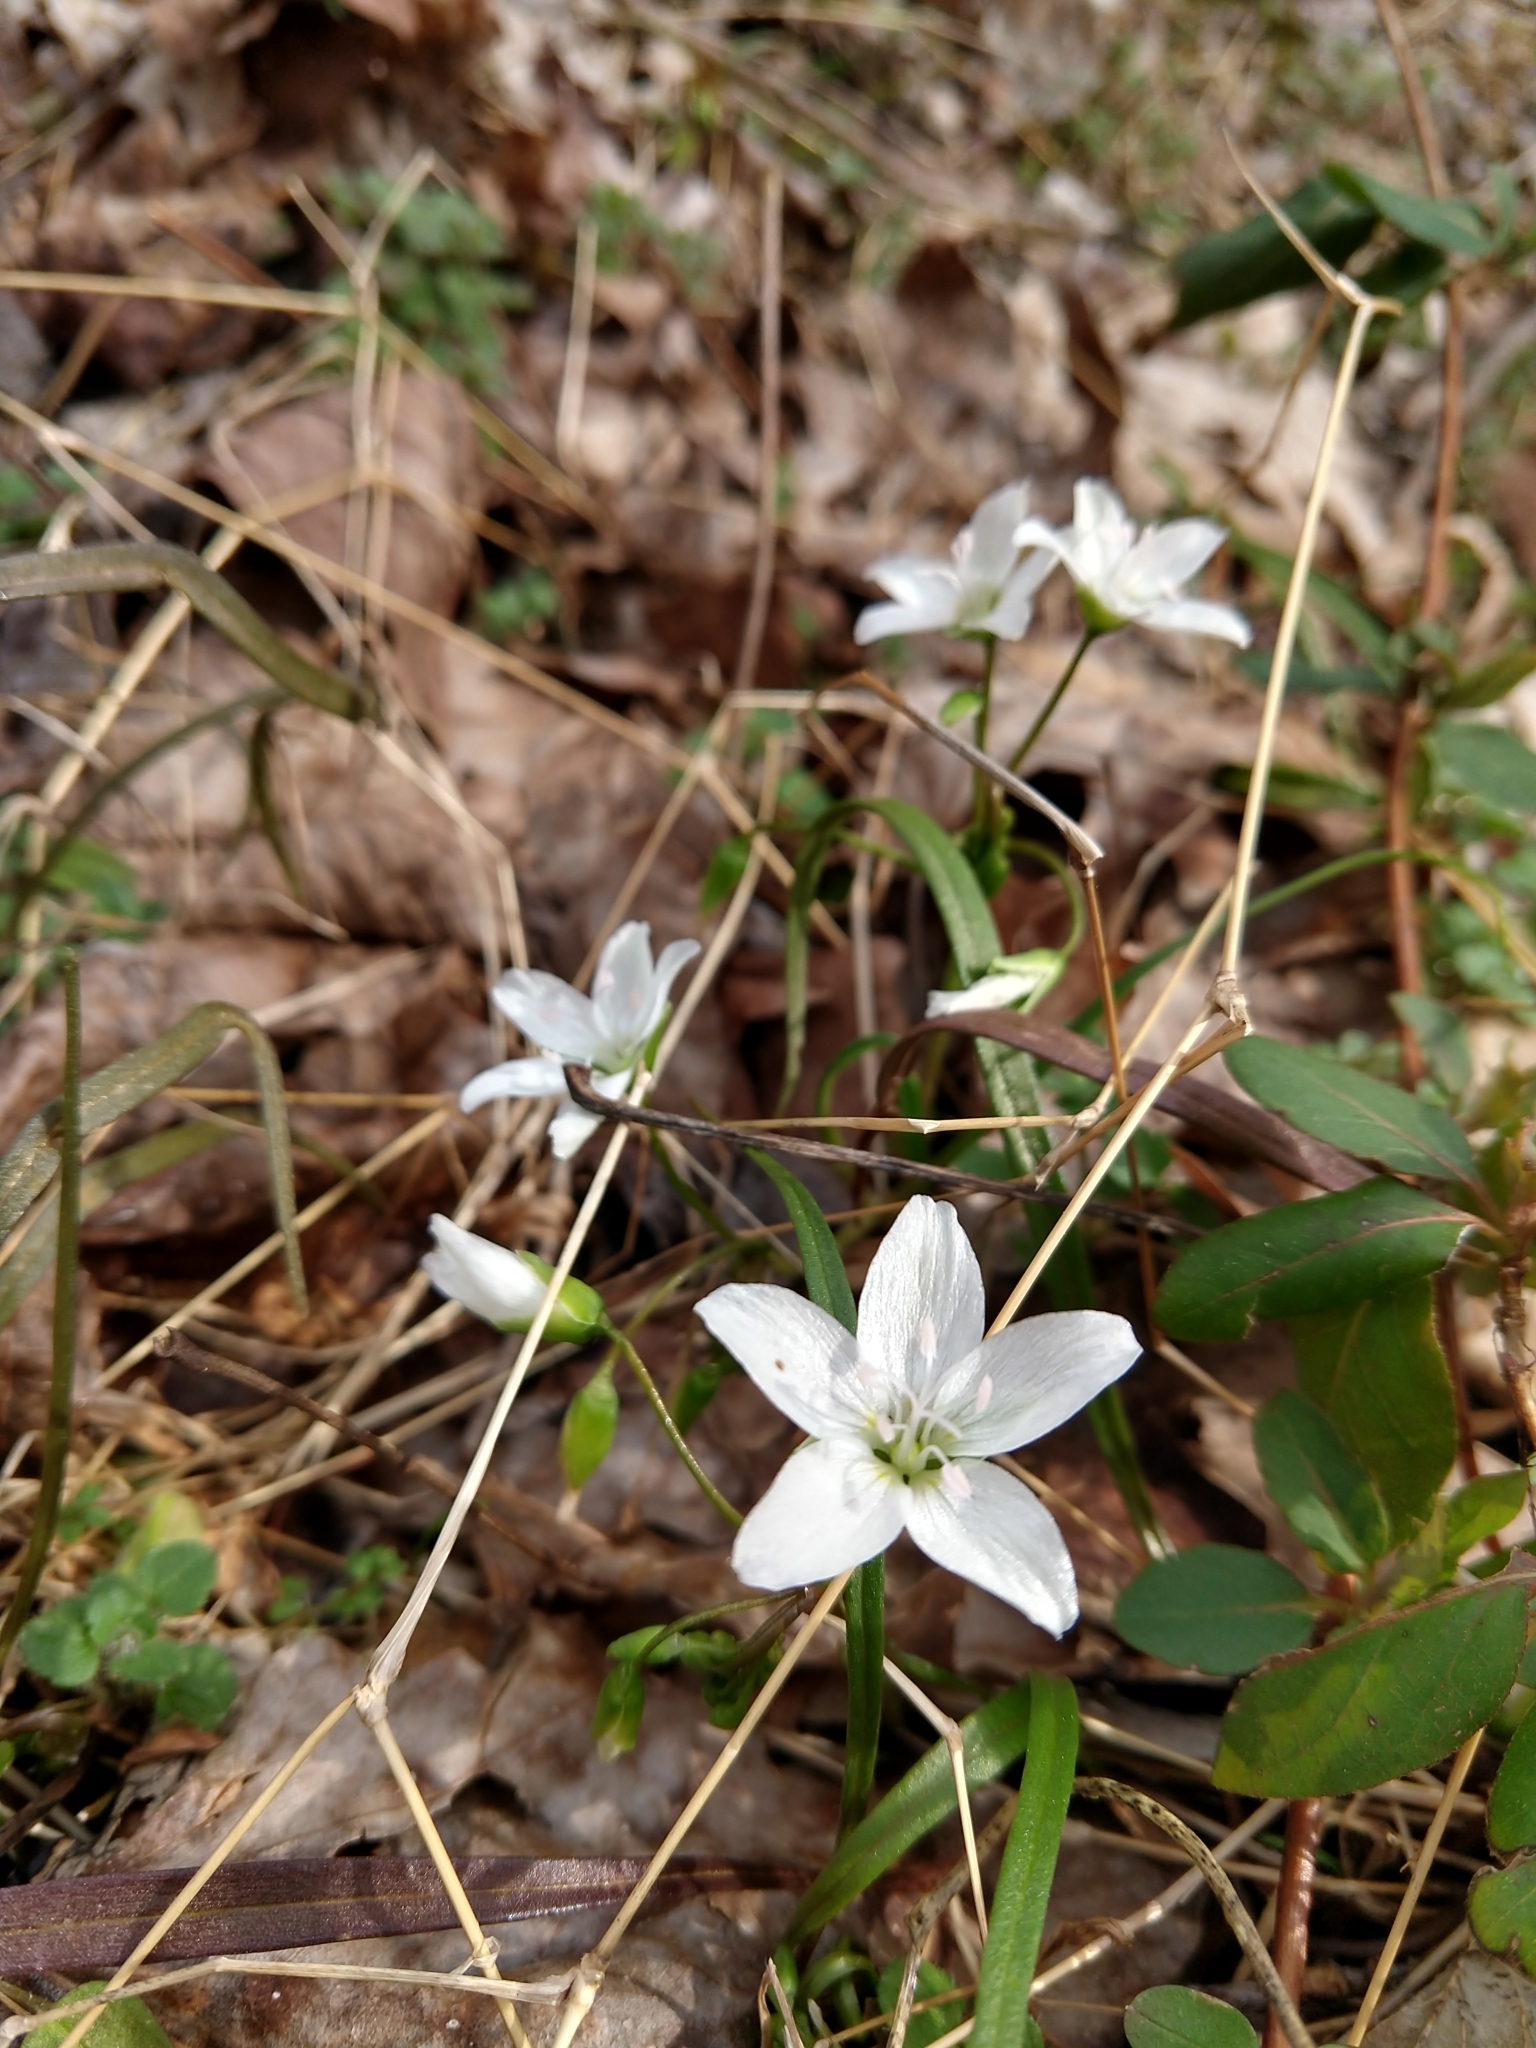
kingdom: Plantae
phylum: Tracheophyta
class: Magnoliopsida
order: Caryophyllales
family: Montiaceae
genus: Claytonia
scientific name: Claytonia virginica
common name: Virginia springbeauty
